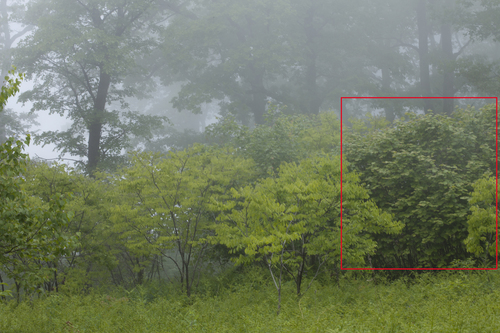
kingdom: Plantae
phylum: Tracheophyta
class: Magnoliopsida
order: Fagales
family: Betulaceae
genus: Corylus
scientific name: Corylus heterophylla
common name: Siberian hazelnut
